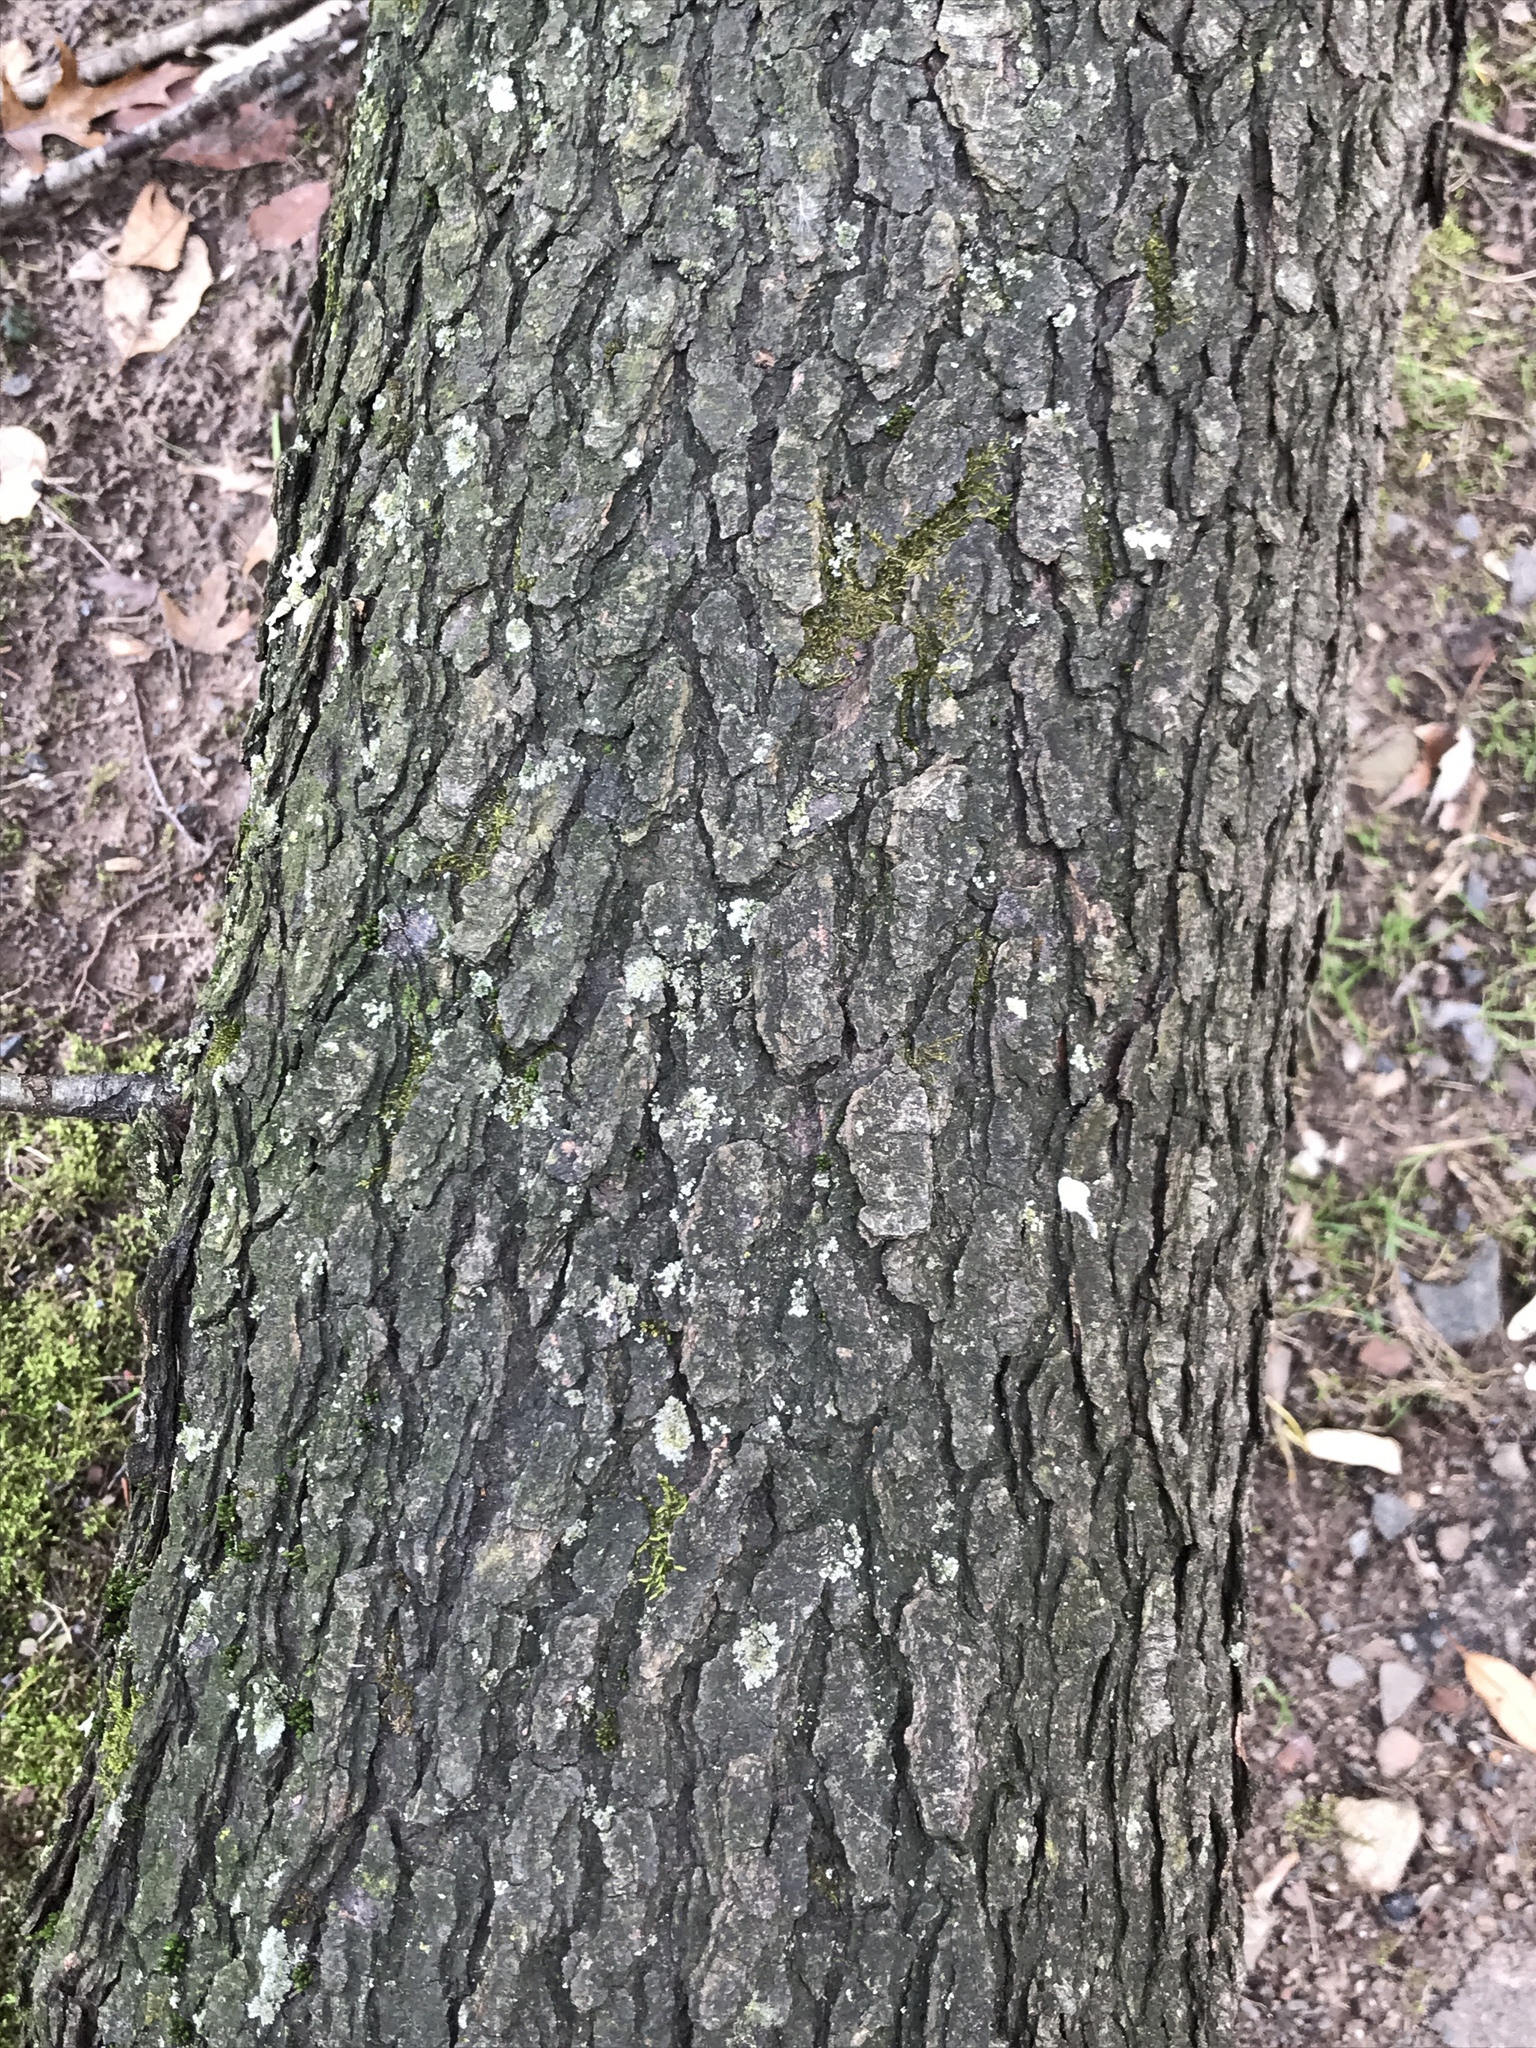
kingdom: Plantae
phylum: Tracheophyta
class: Magnoliopsida
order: Rosales
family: Rosaceae
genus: Prunus
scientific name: Prunus serotina
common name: Black cherry
